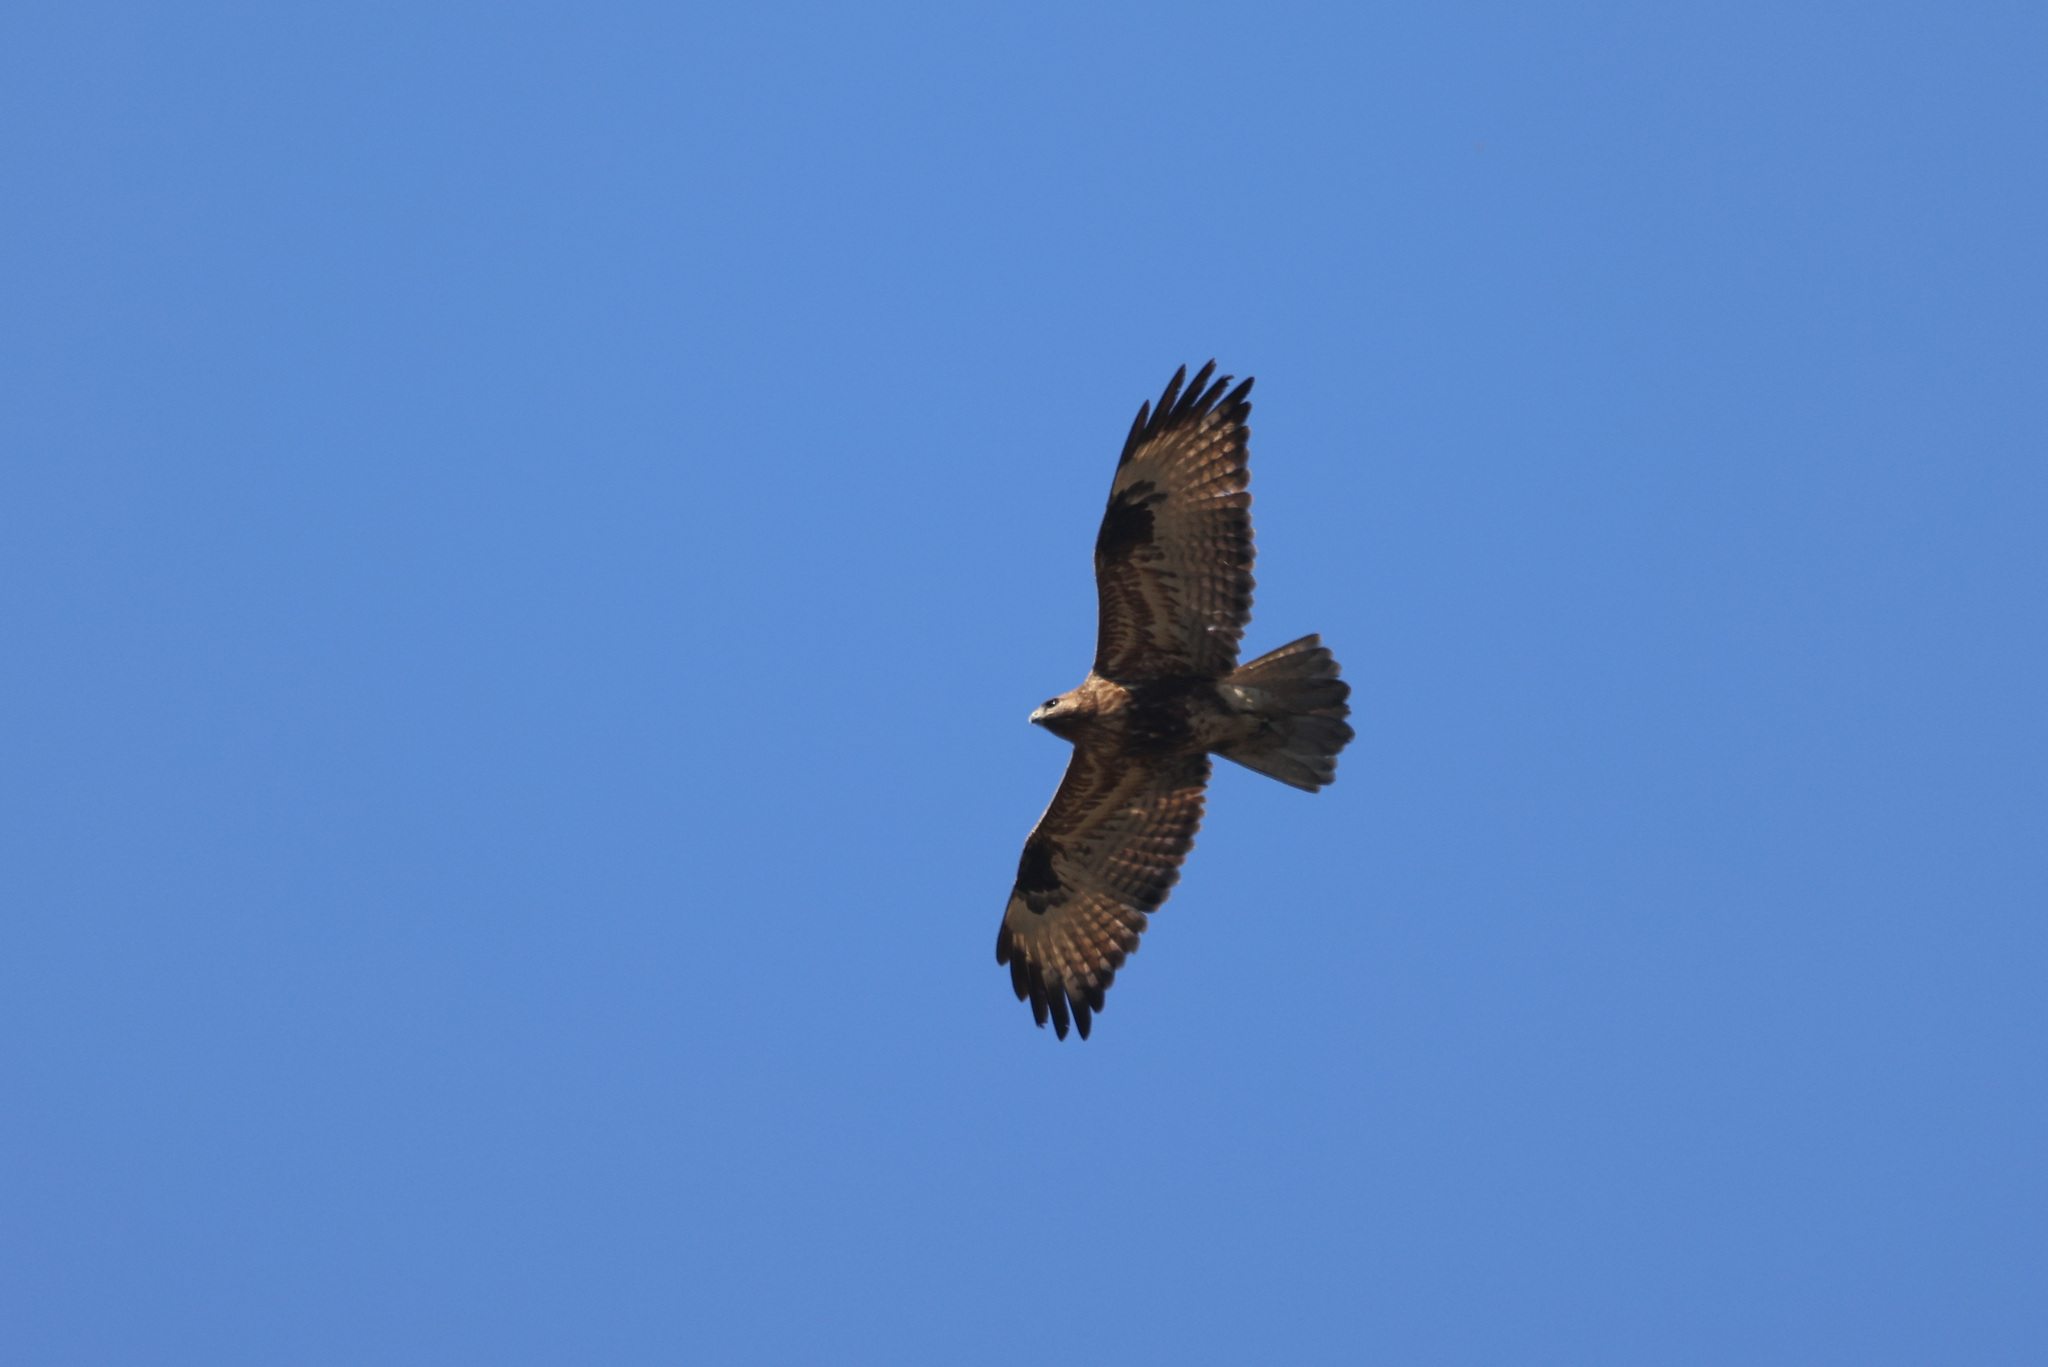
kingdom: Animalia
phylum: Chordata
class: Aves
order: Accipitriformes
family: Accipitridae
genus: Buteo
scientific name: Buteo refectus
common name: Himalayan buzzard
